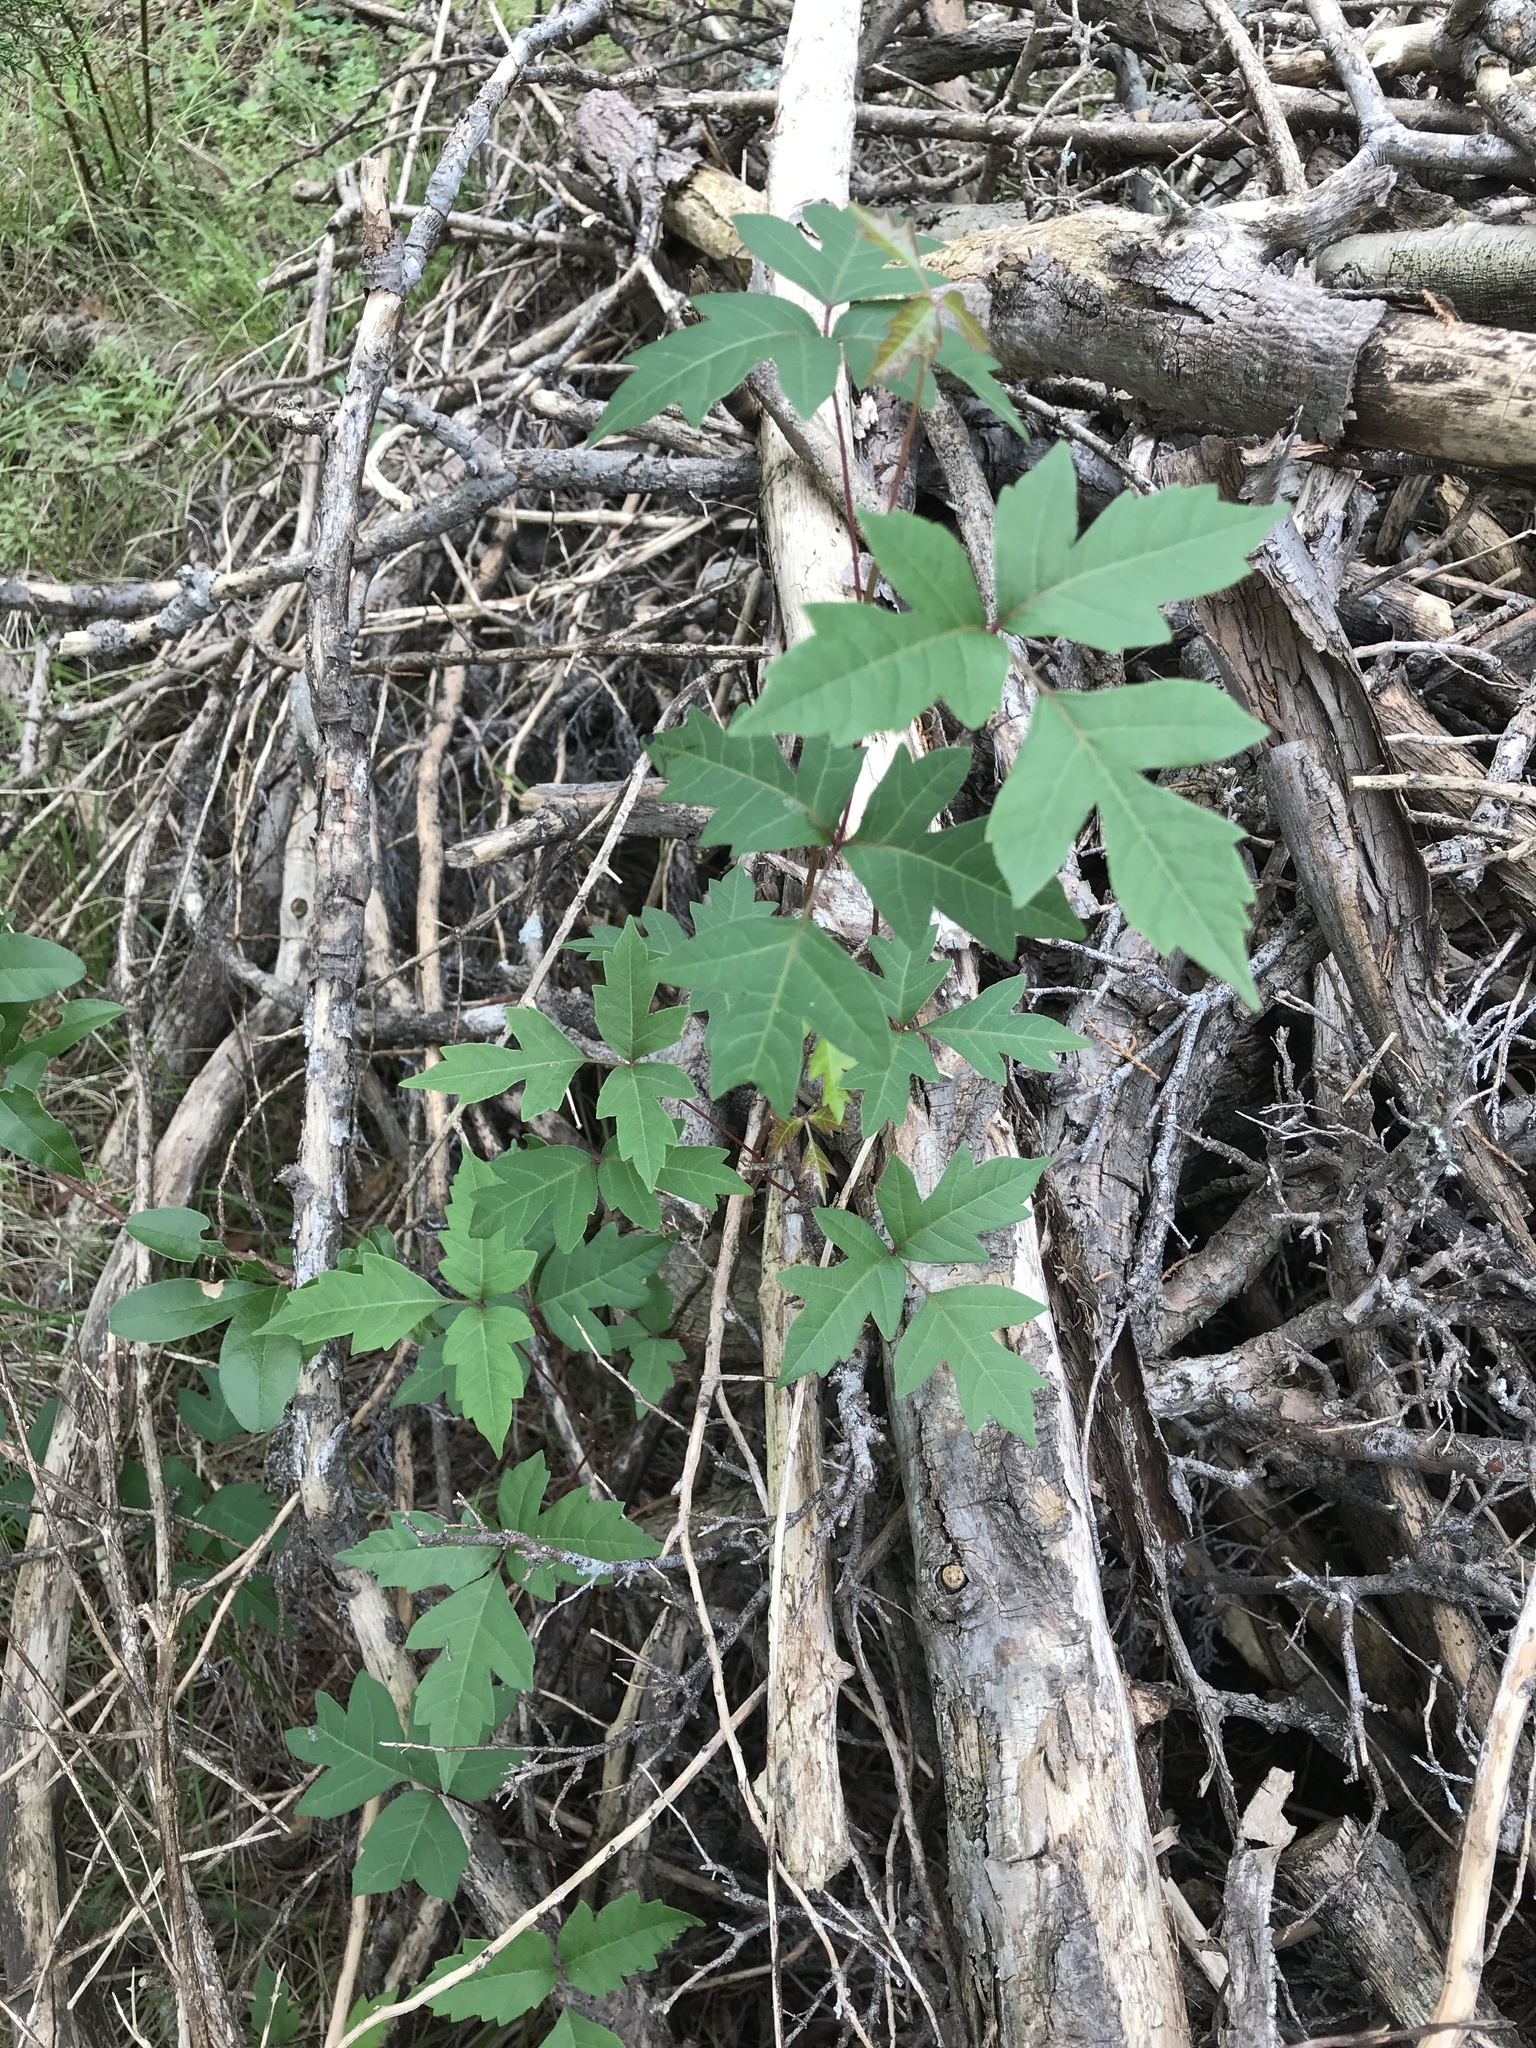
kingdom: Plantae
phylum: Tracheophyta
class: Magnoliopsida
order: Sapindales
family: Anacardiaceae
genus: Toxicodendron
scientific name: Toxicodendron radicans
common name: Poison ivy
